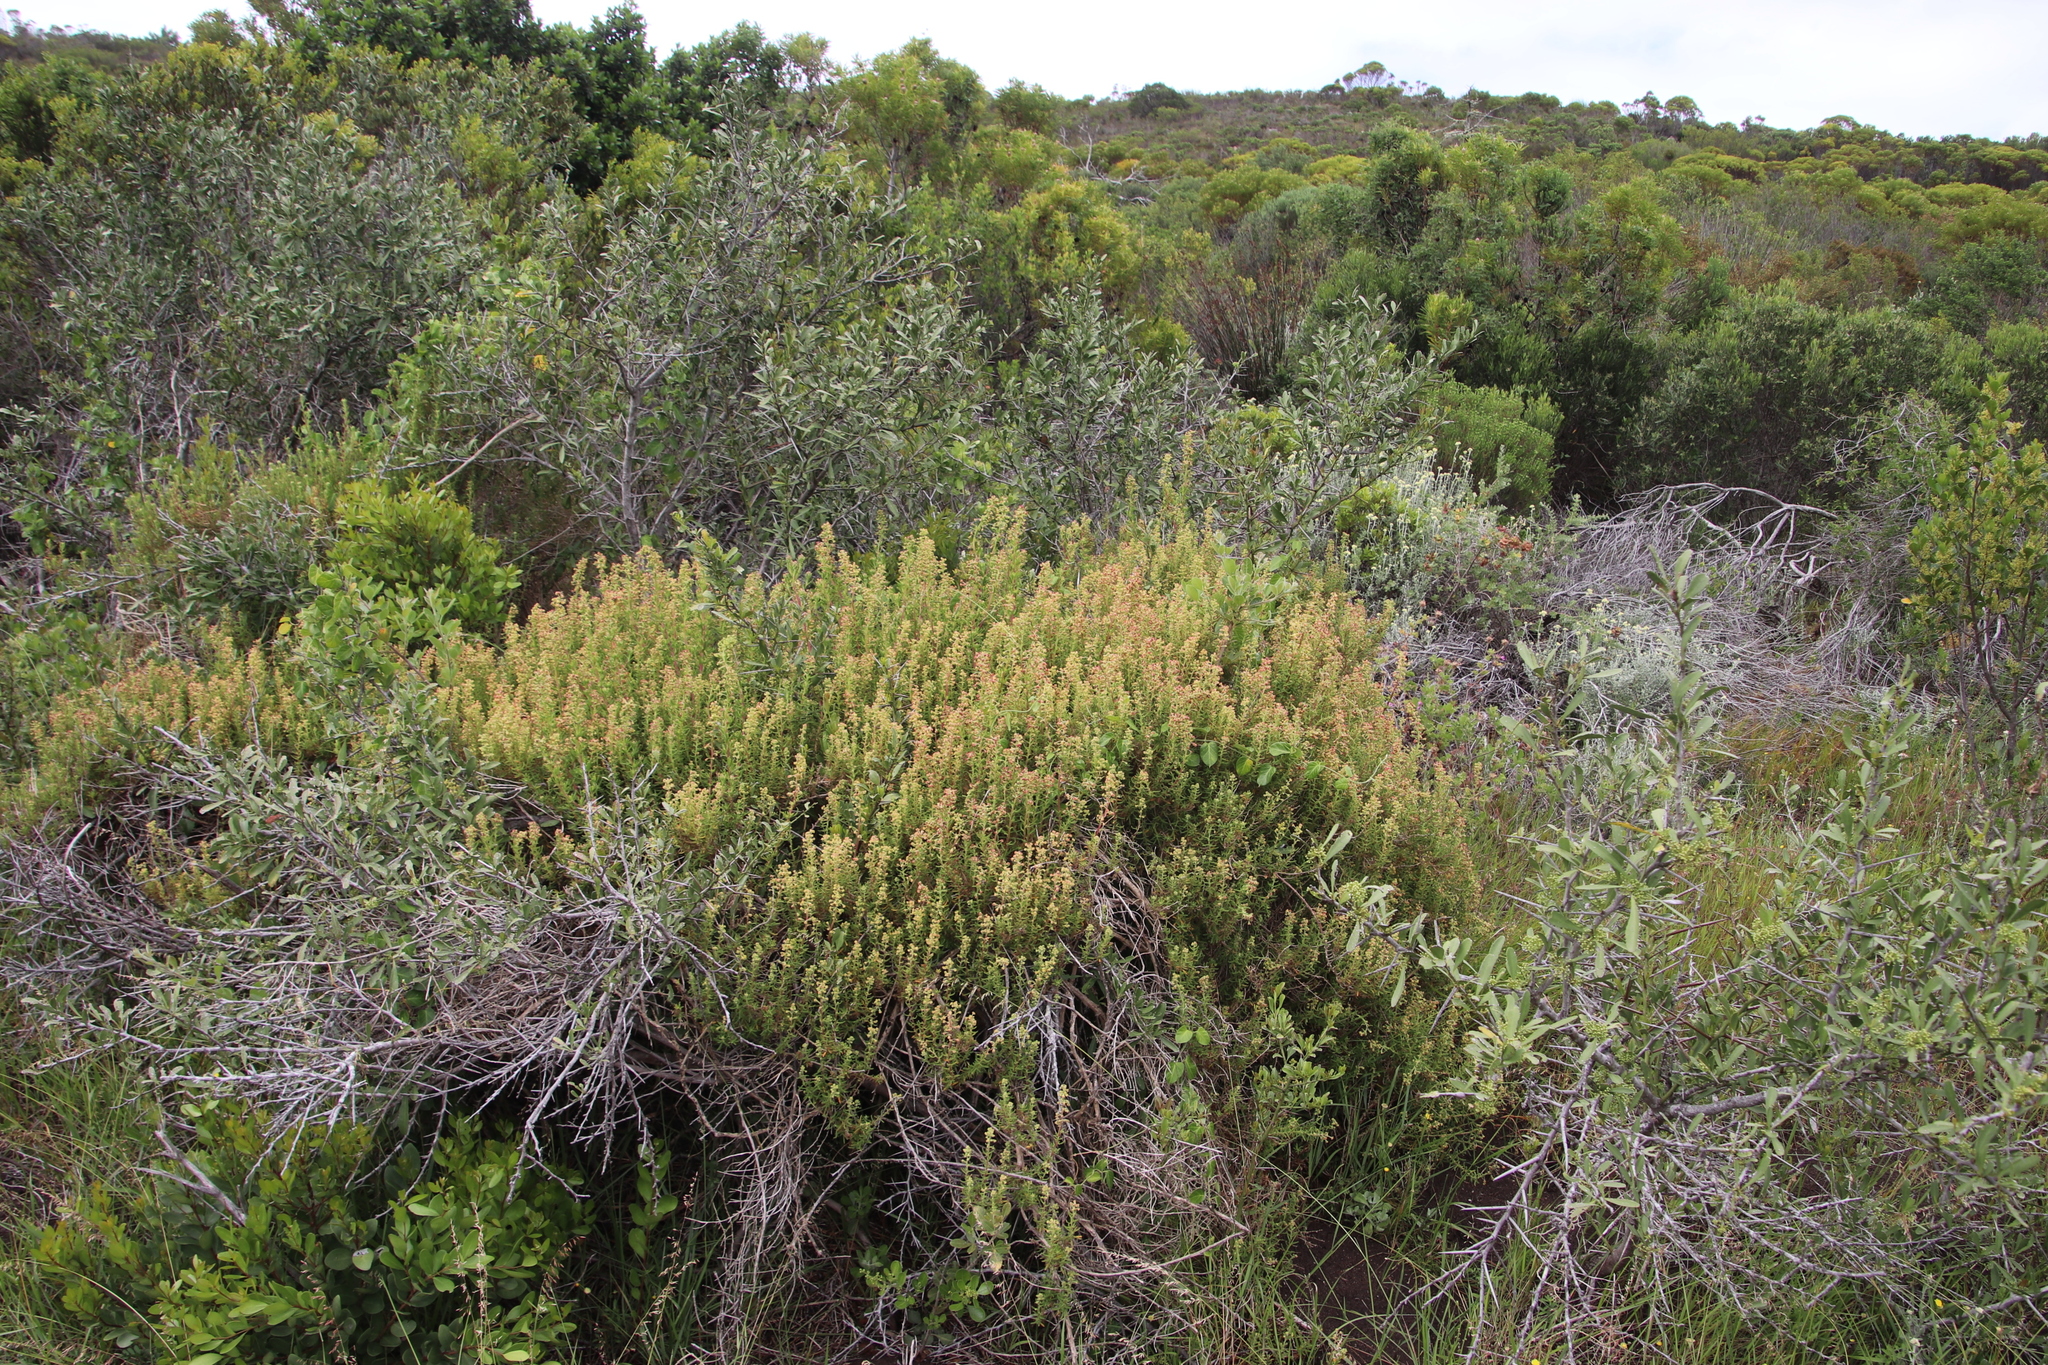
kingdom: Plantae
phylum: Tracheophyta
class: Magnoliopsida
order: Caryophyllales
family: Aizoaceae
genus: Tetragonia
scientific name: Tetragonia fruticosa
